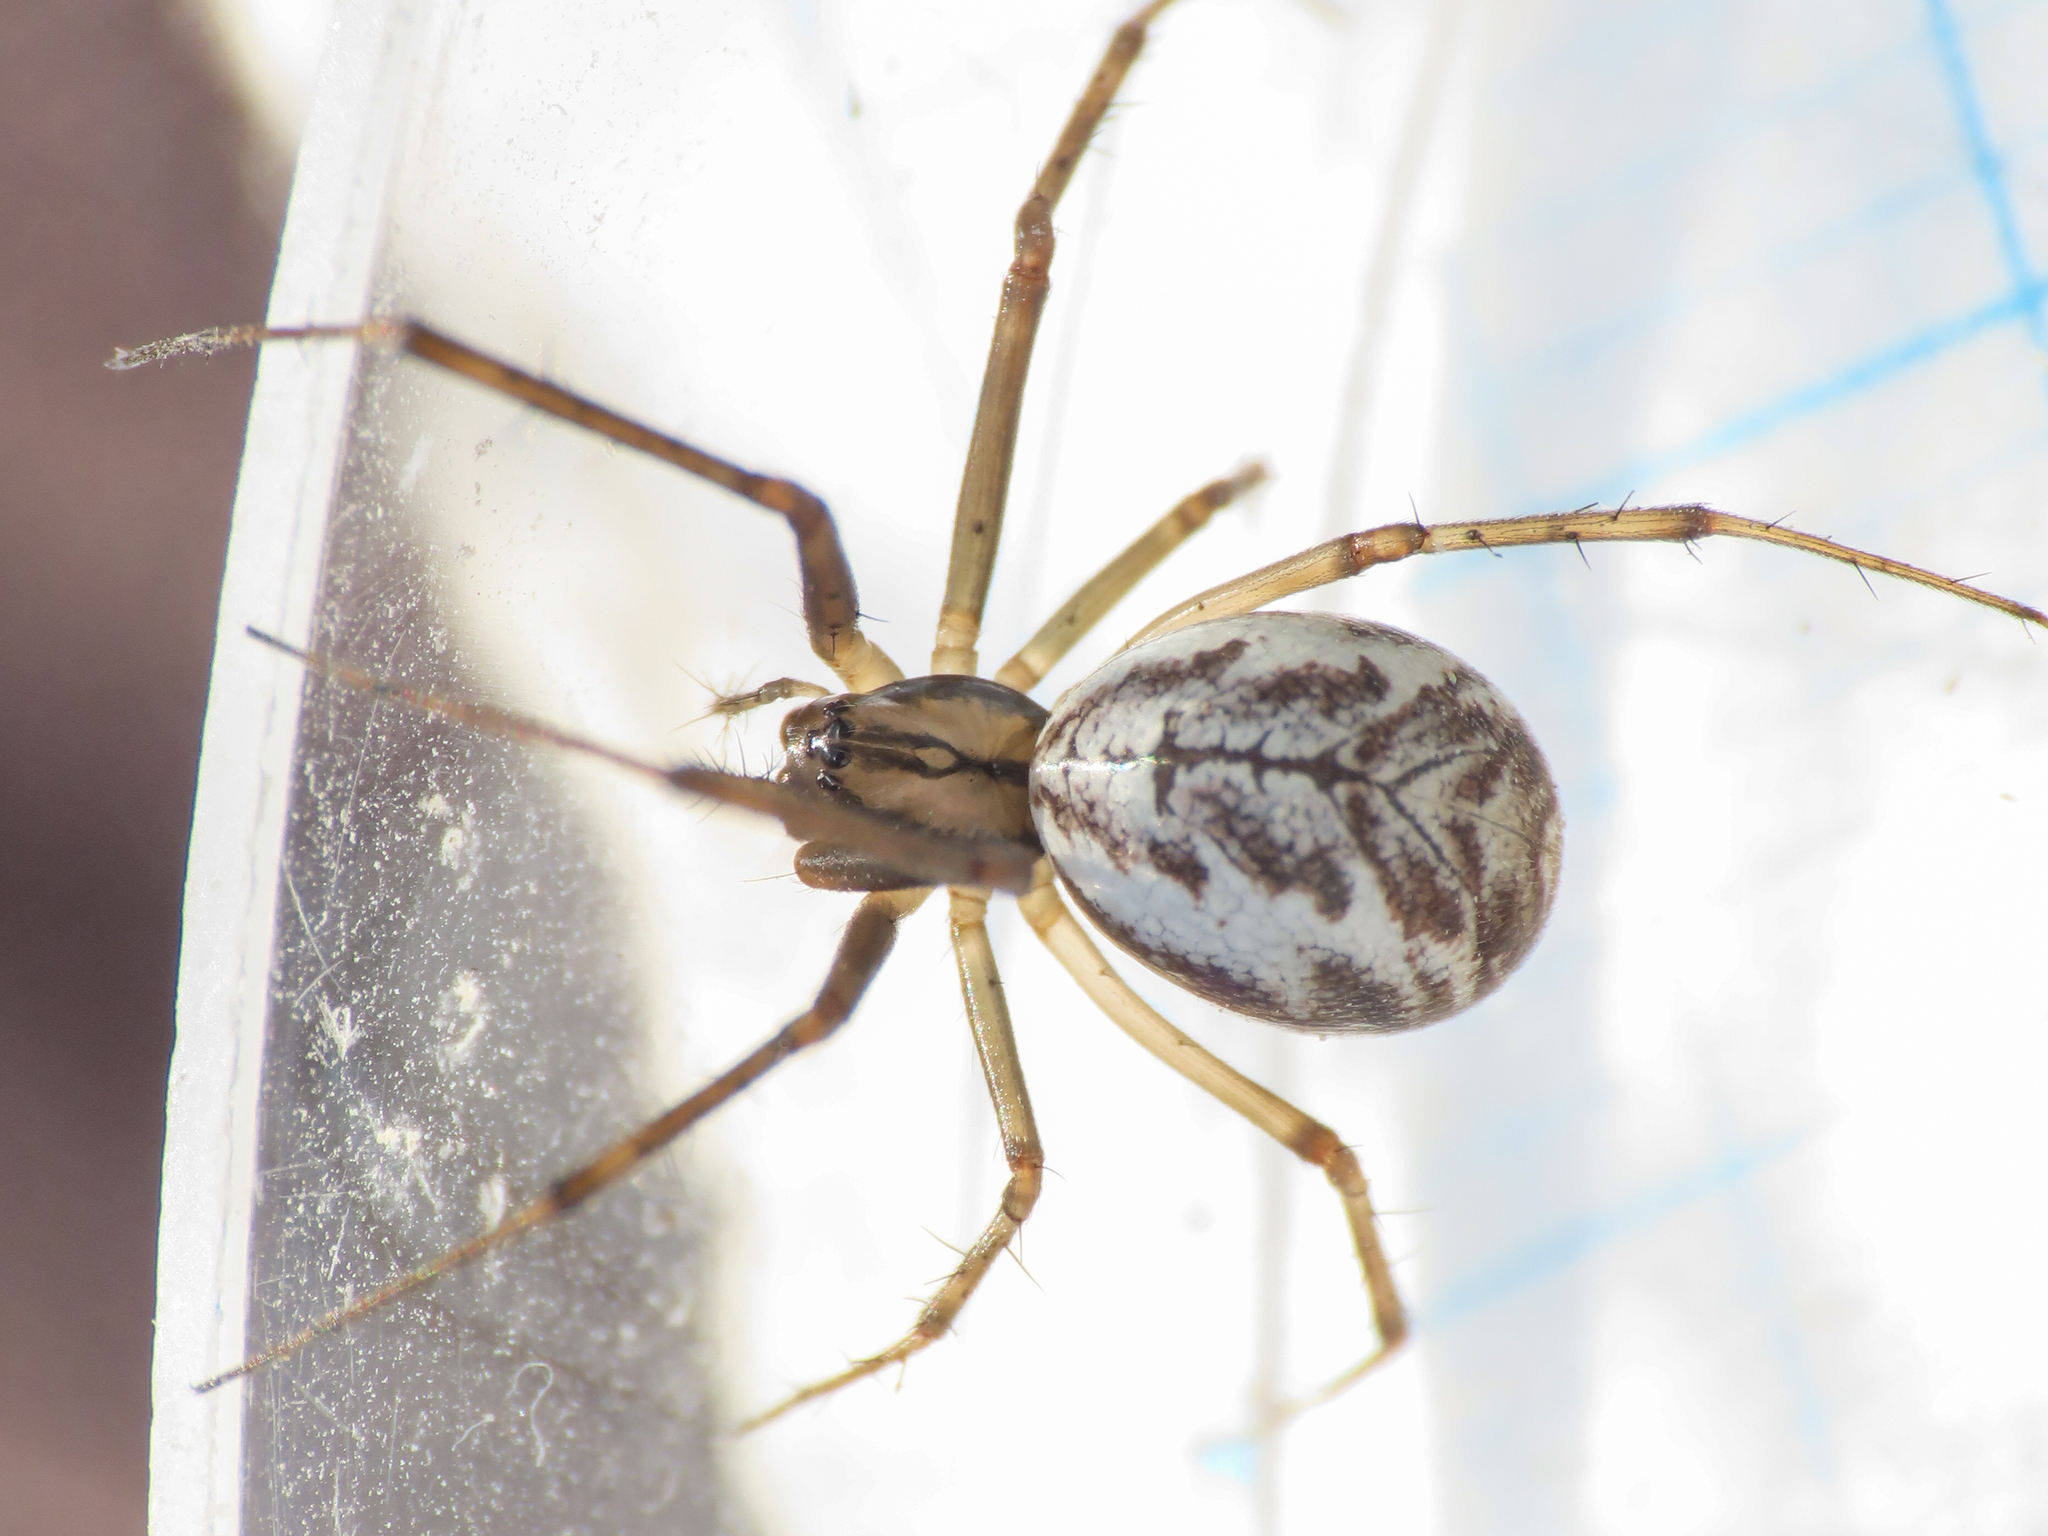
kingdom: Animalia
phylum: Arthropoda
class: Arachnida
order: Araneae
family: Linyphiidae
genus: Linyphia
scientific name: Linyphia tenuipalpis
